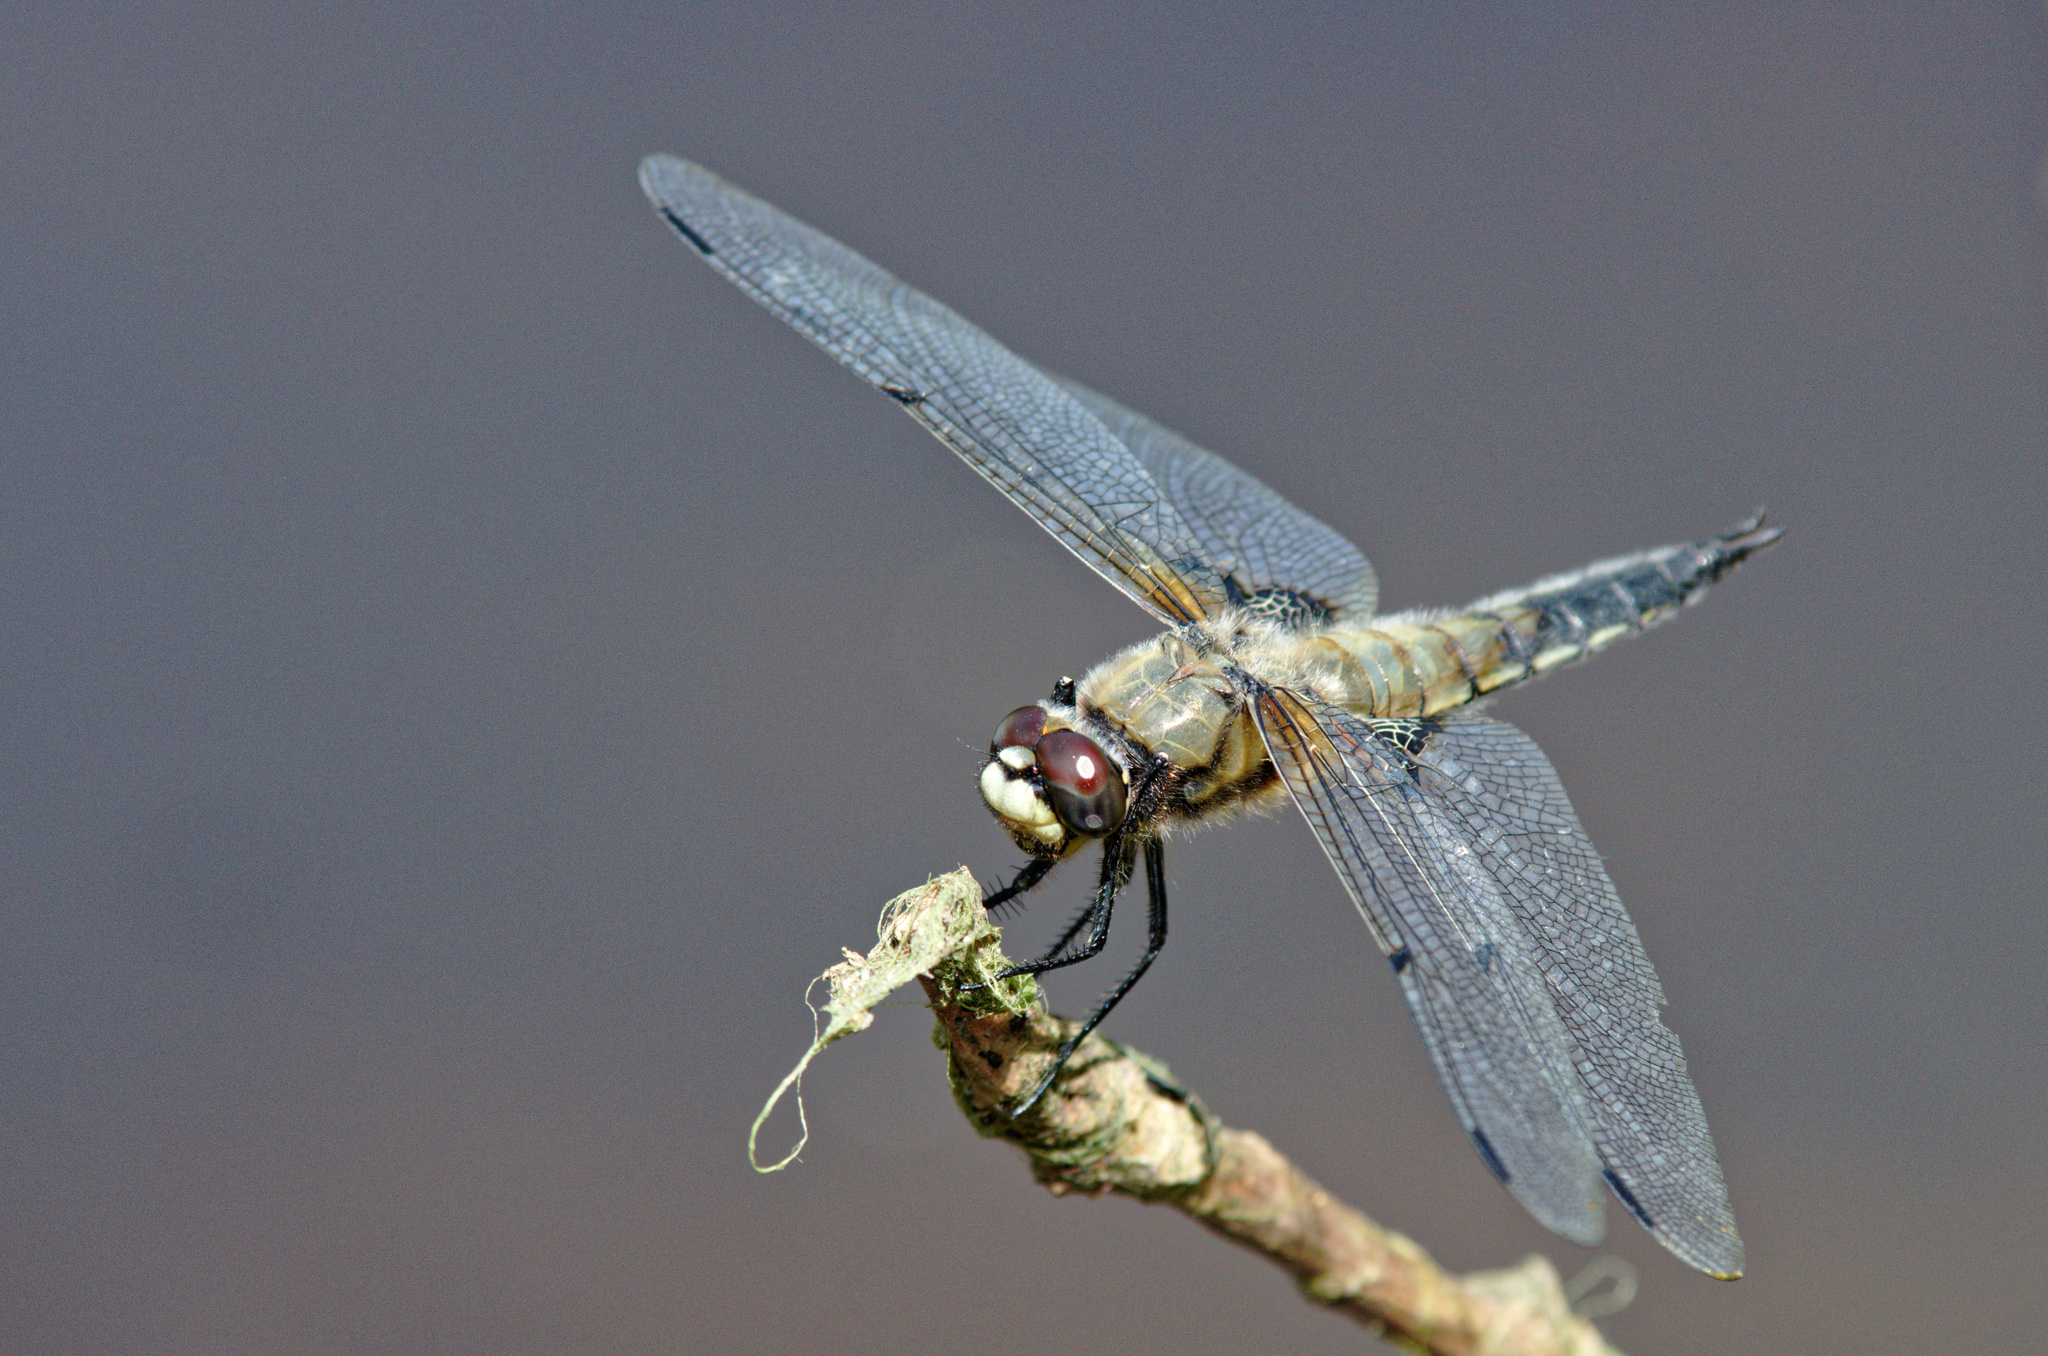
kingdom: Animalia
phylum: Arthropoda
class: Insecta
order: Odonata
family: Libellulidae
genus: Libellula
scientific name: Libellula quadrimaculata
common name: Four-spotted chaser
